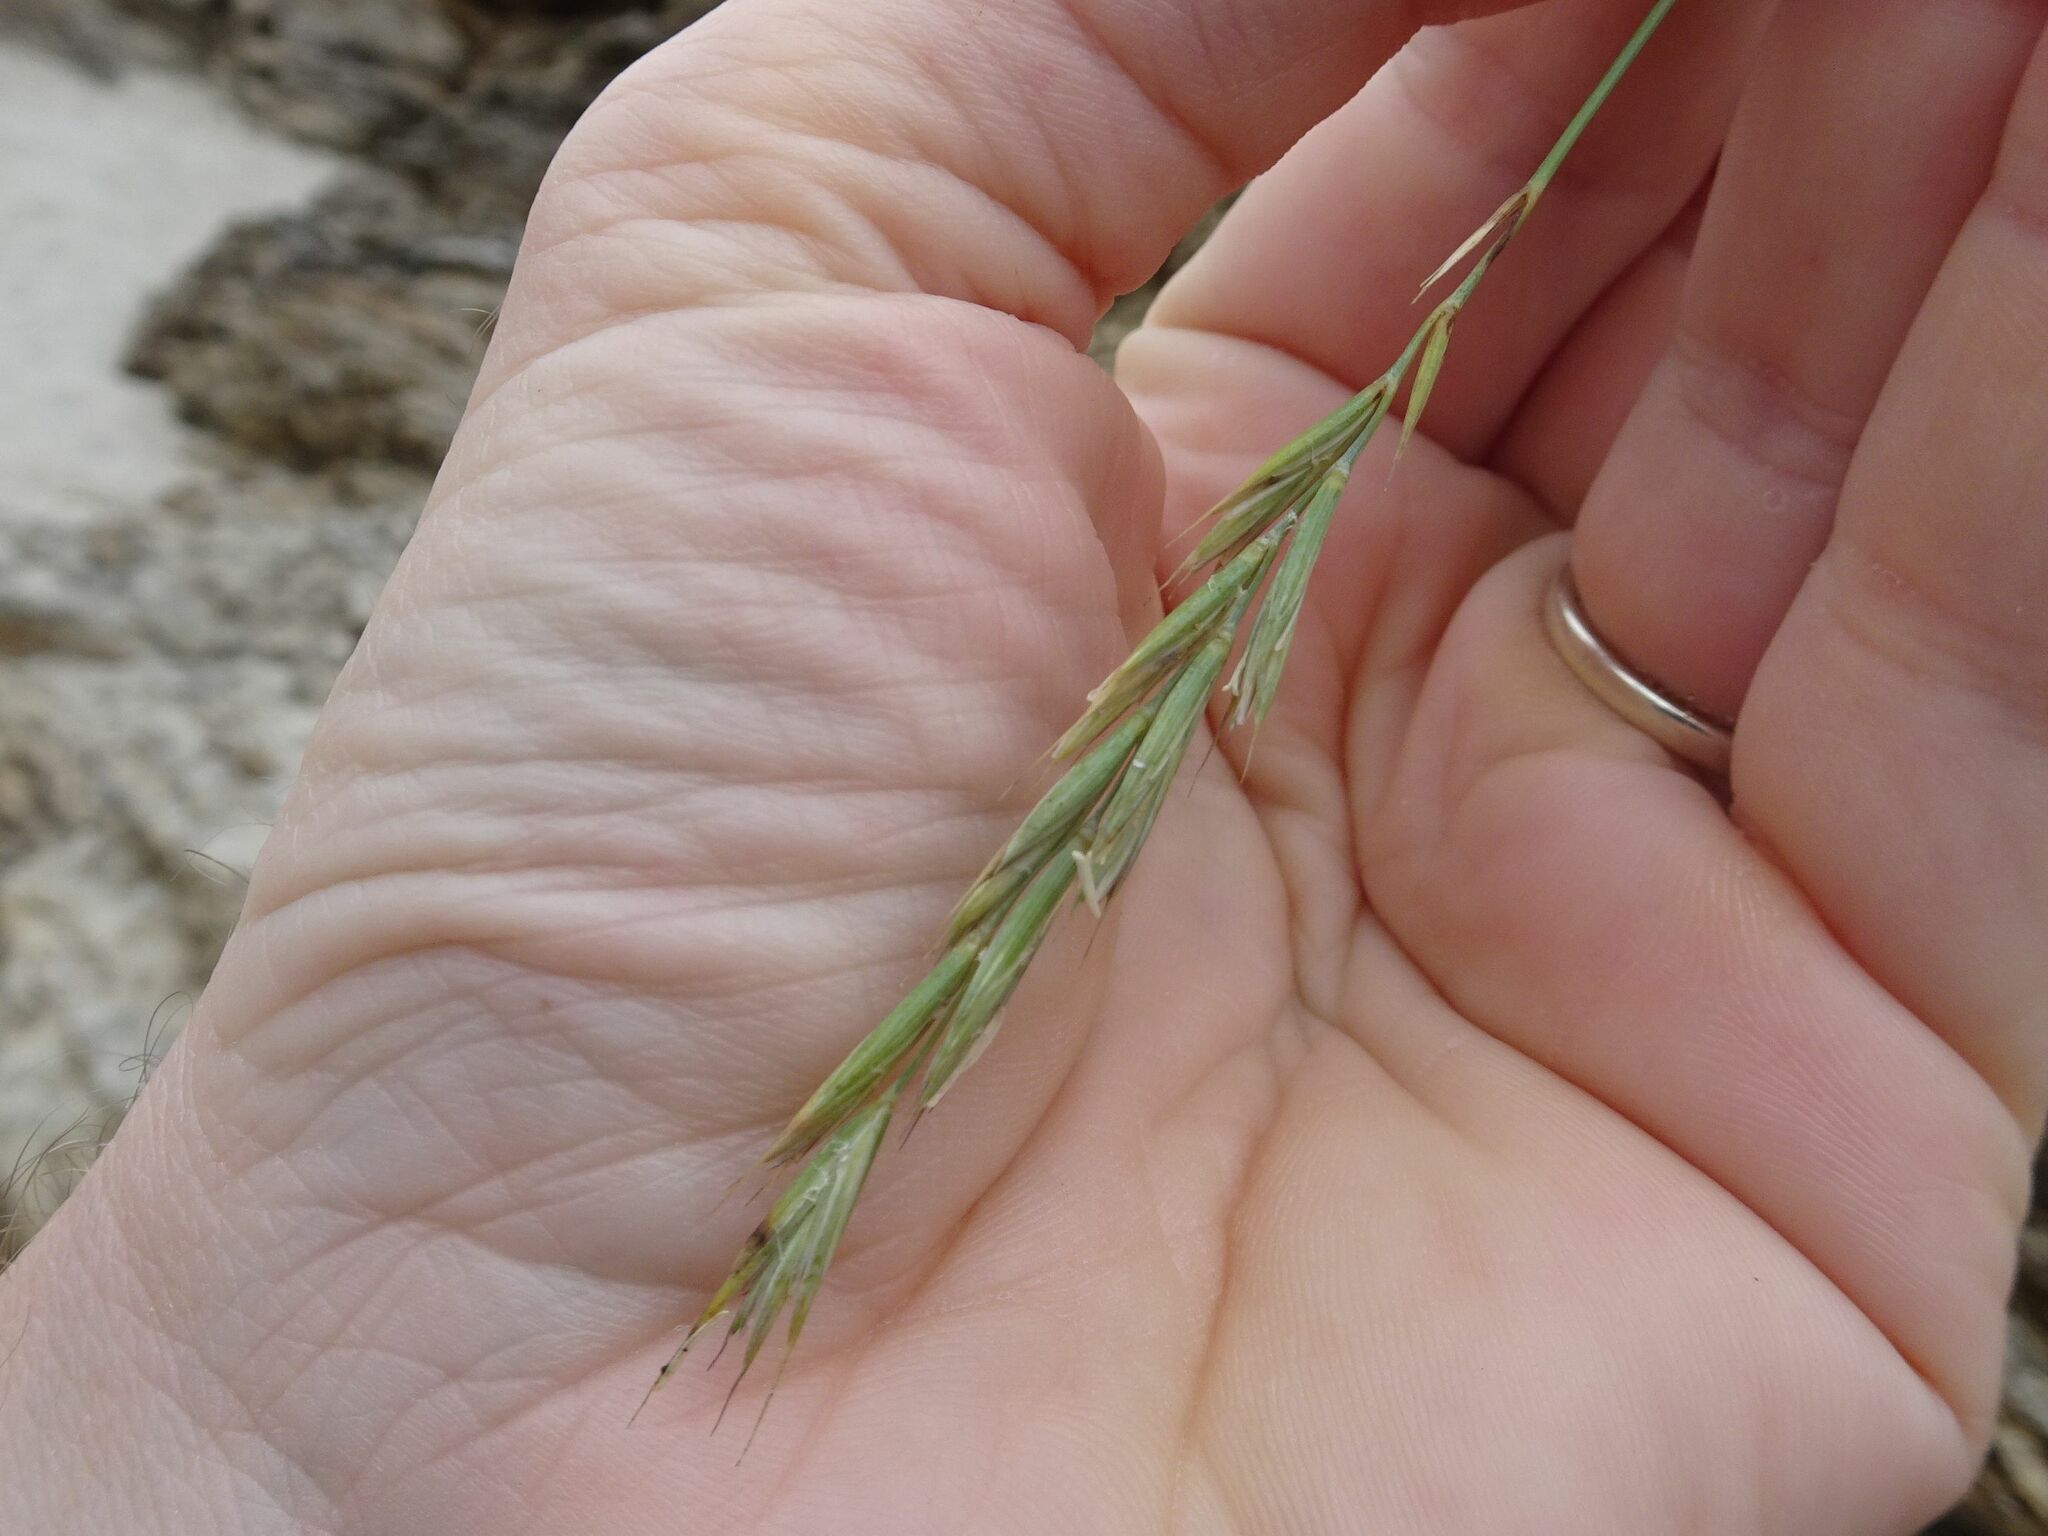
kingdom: Plantae
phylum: Tracheophyta
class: Liliopsida
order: Poales
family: Poaceae
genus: Elymus
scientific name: Elymus athericus
